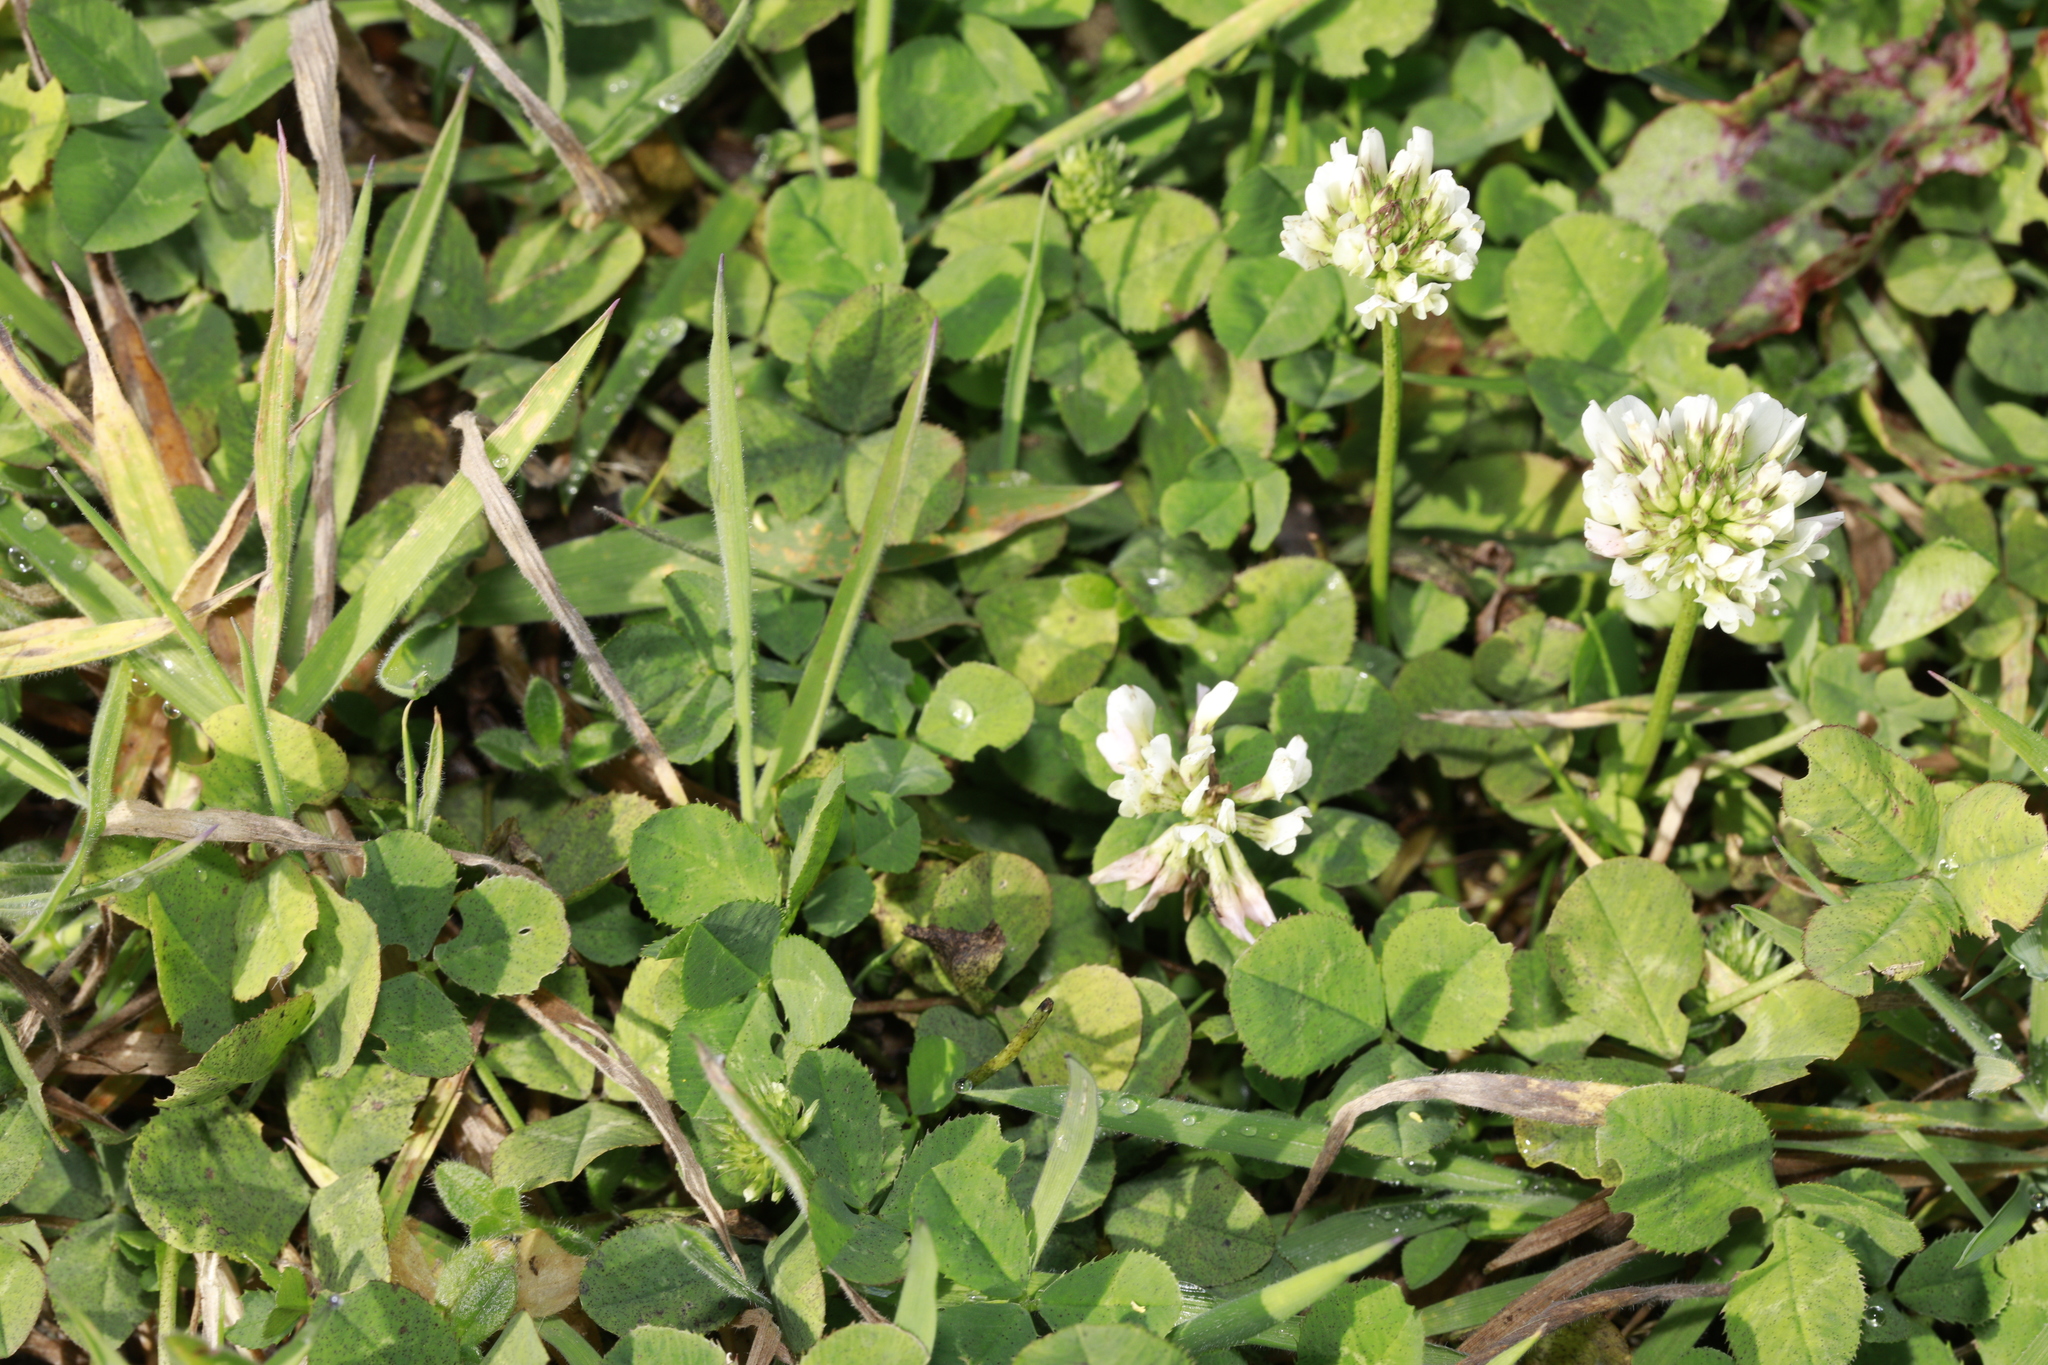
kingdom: Plantae
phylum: Tracheophyta
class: Magnoliopsida
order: Fabales
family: Fabaceae
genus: Trifolium
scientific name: Trifolium repens
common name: White clover
